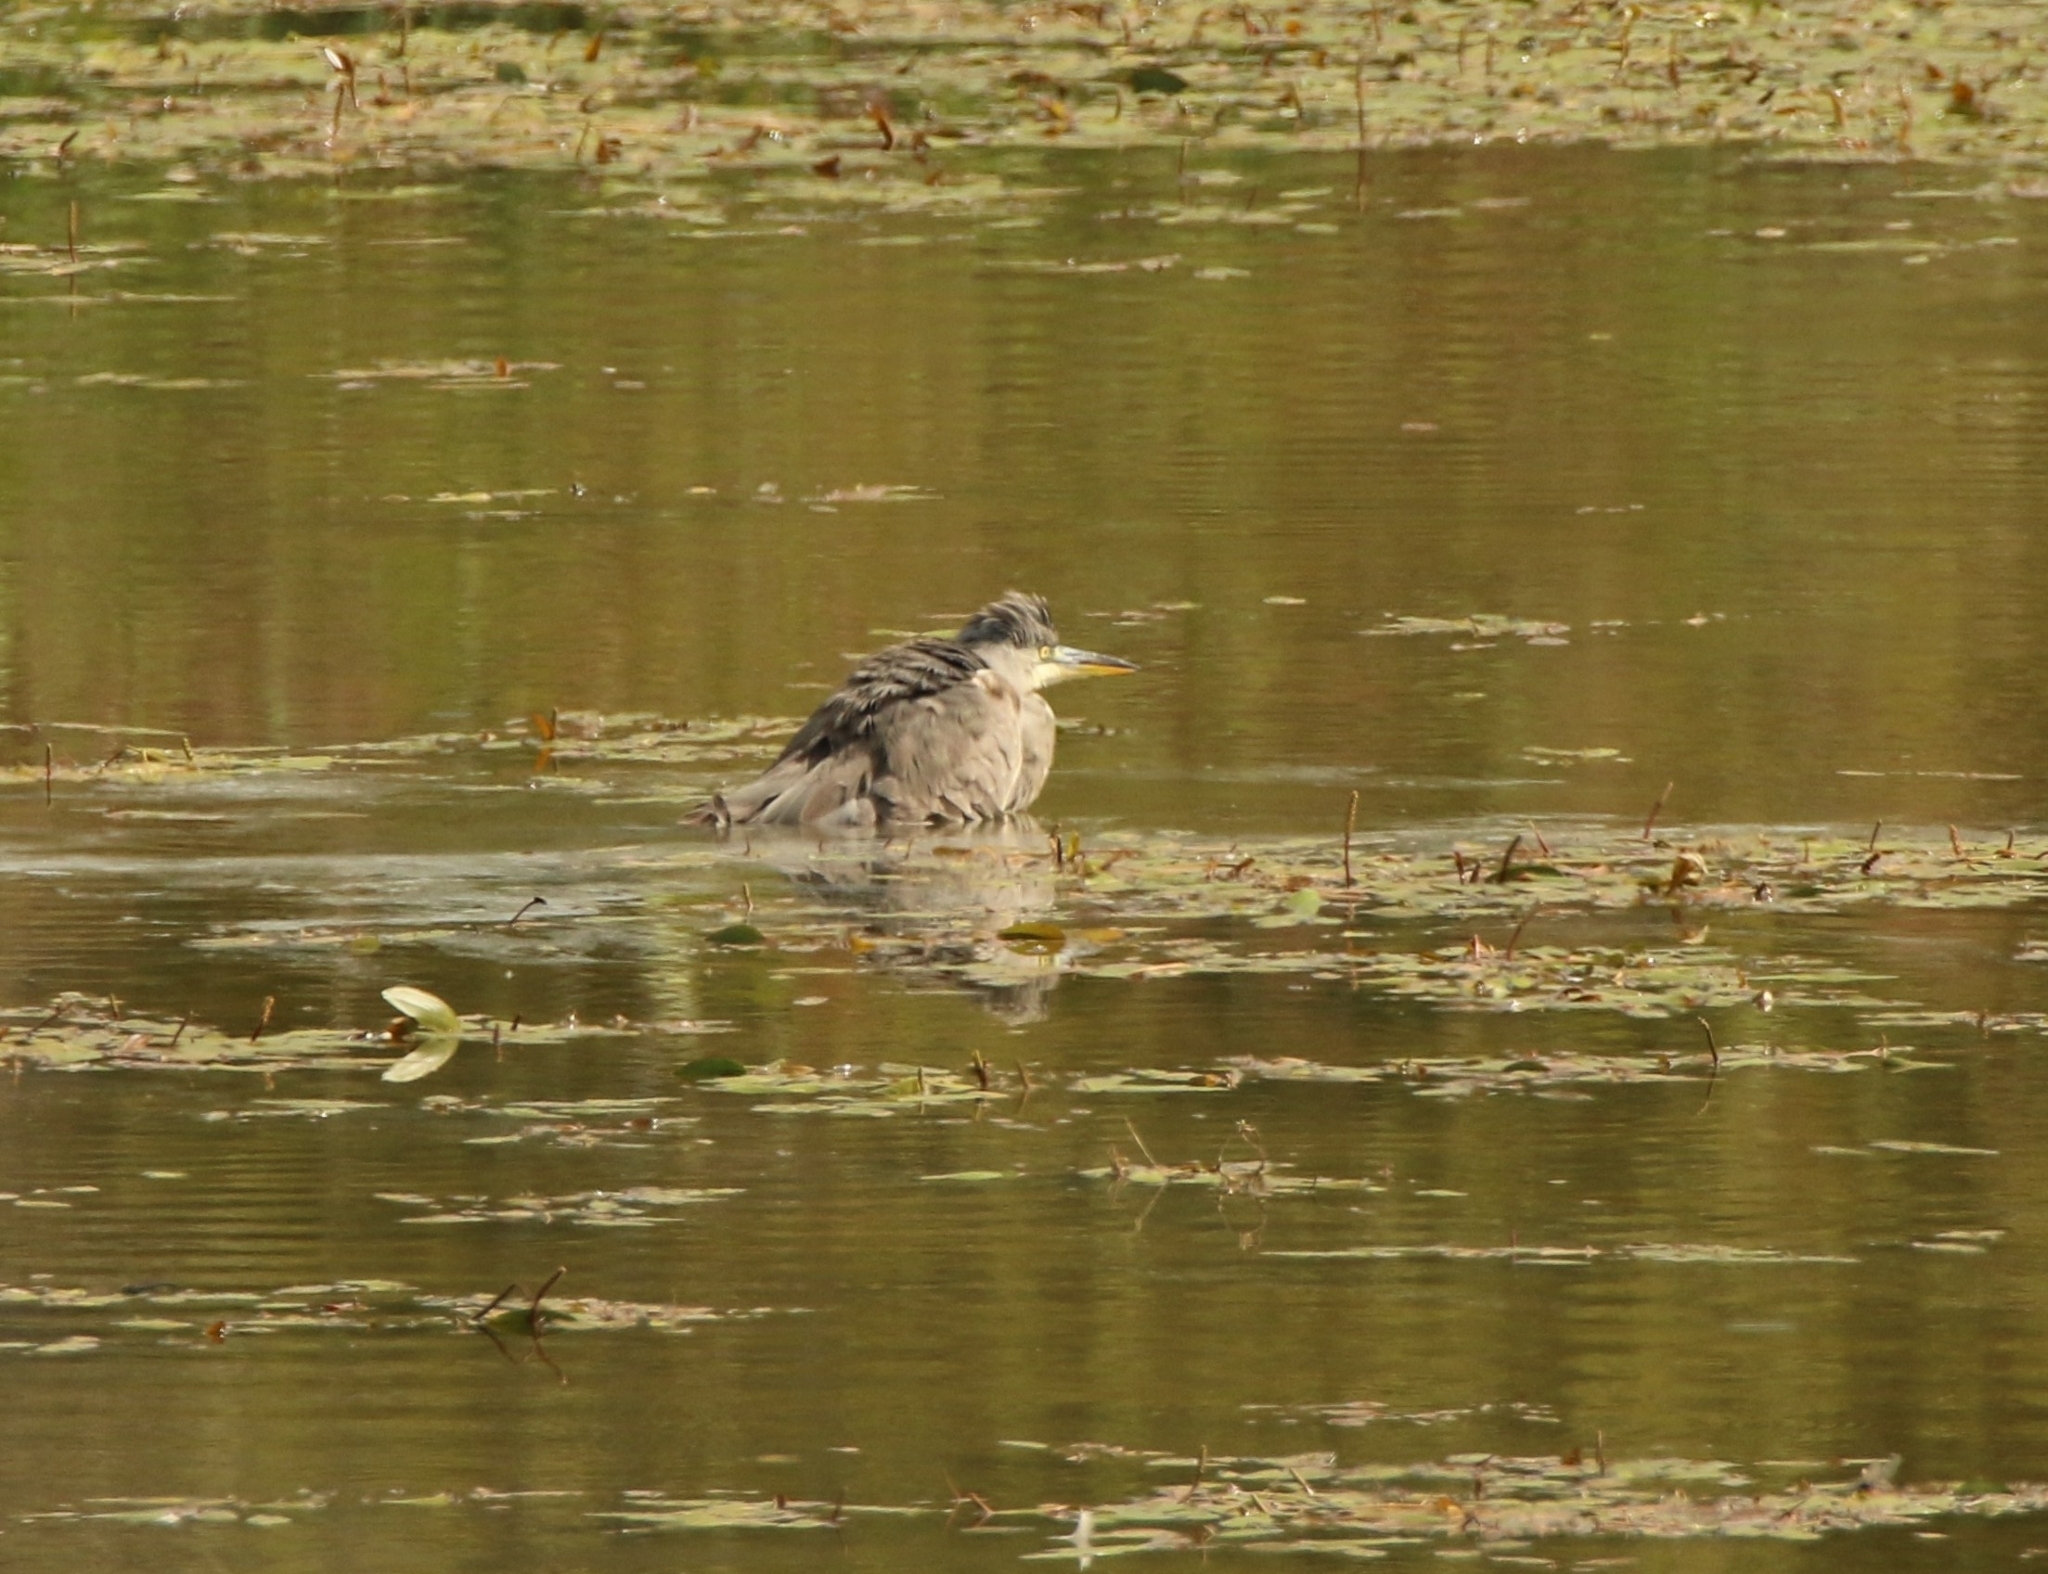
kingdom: Animalia
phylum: Chordata
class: Aves
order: Pelecaniformes
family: Ardeidae
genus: Ardea
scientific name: Ardea cinerea
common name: Grey heron
